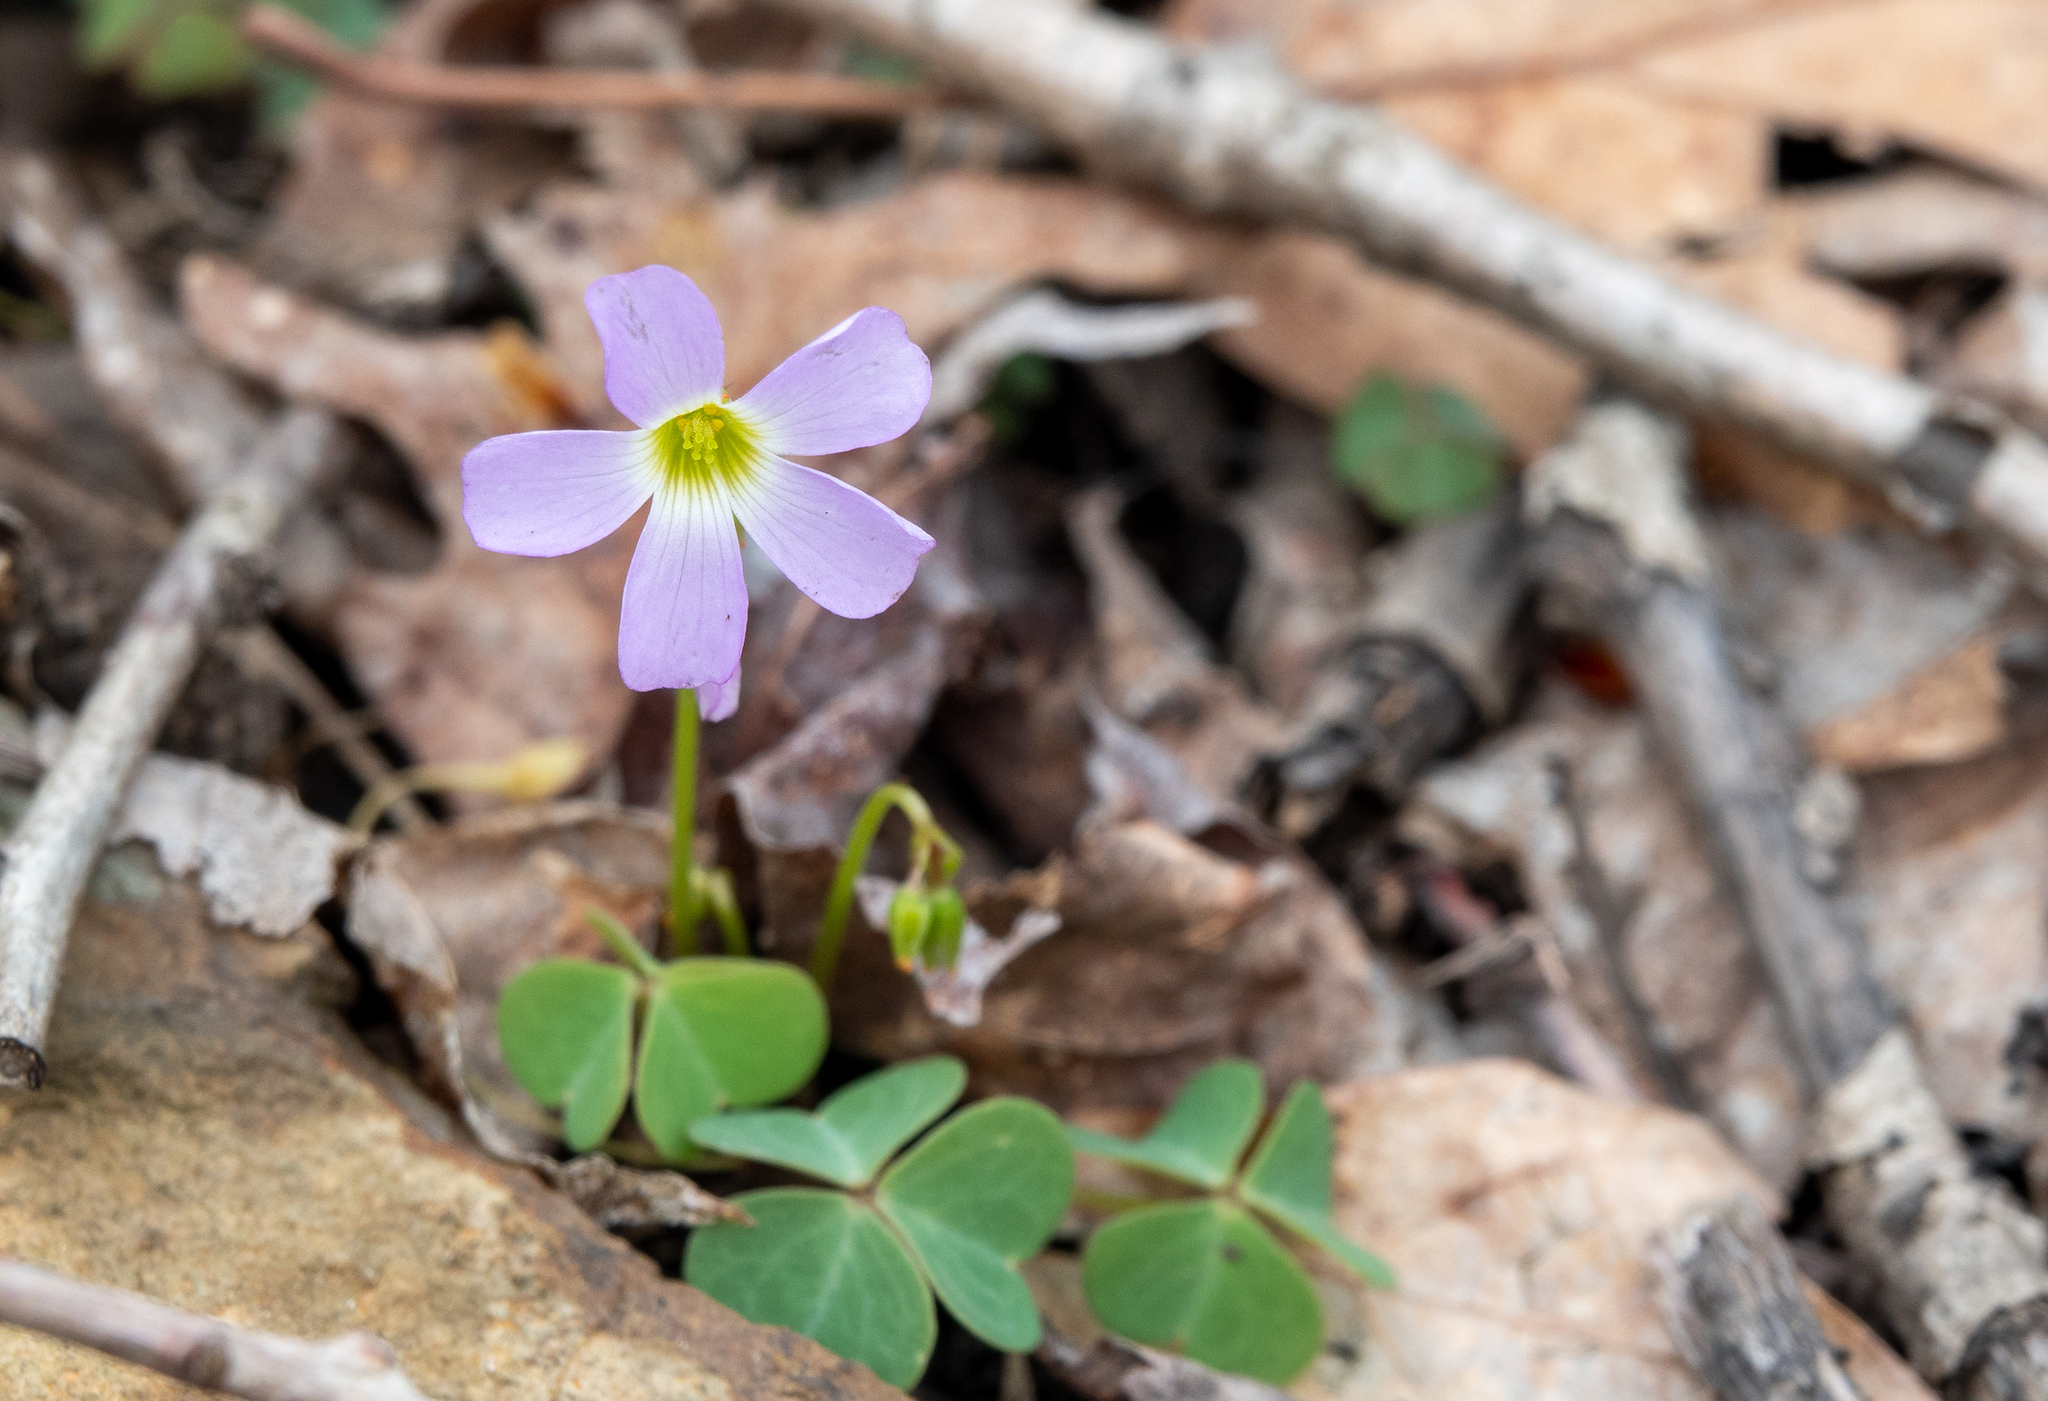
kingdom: Plantae
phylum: Tracheophyta
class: Magnoliopsida
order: Oxalidales
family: Oxalidaceae
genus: Oxalis
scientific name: Oxalis violacea
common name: Violet wood-sorrel
